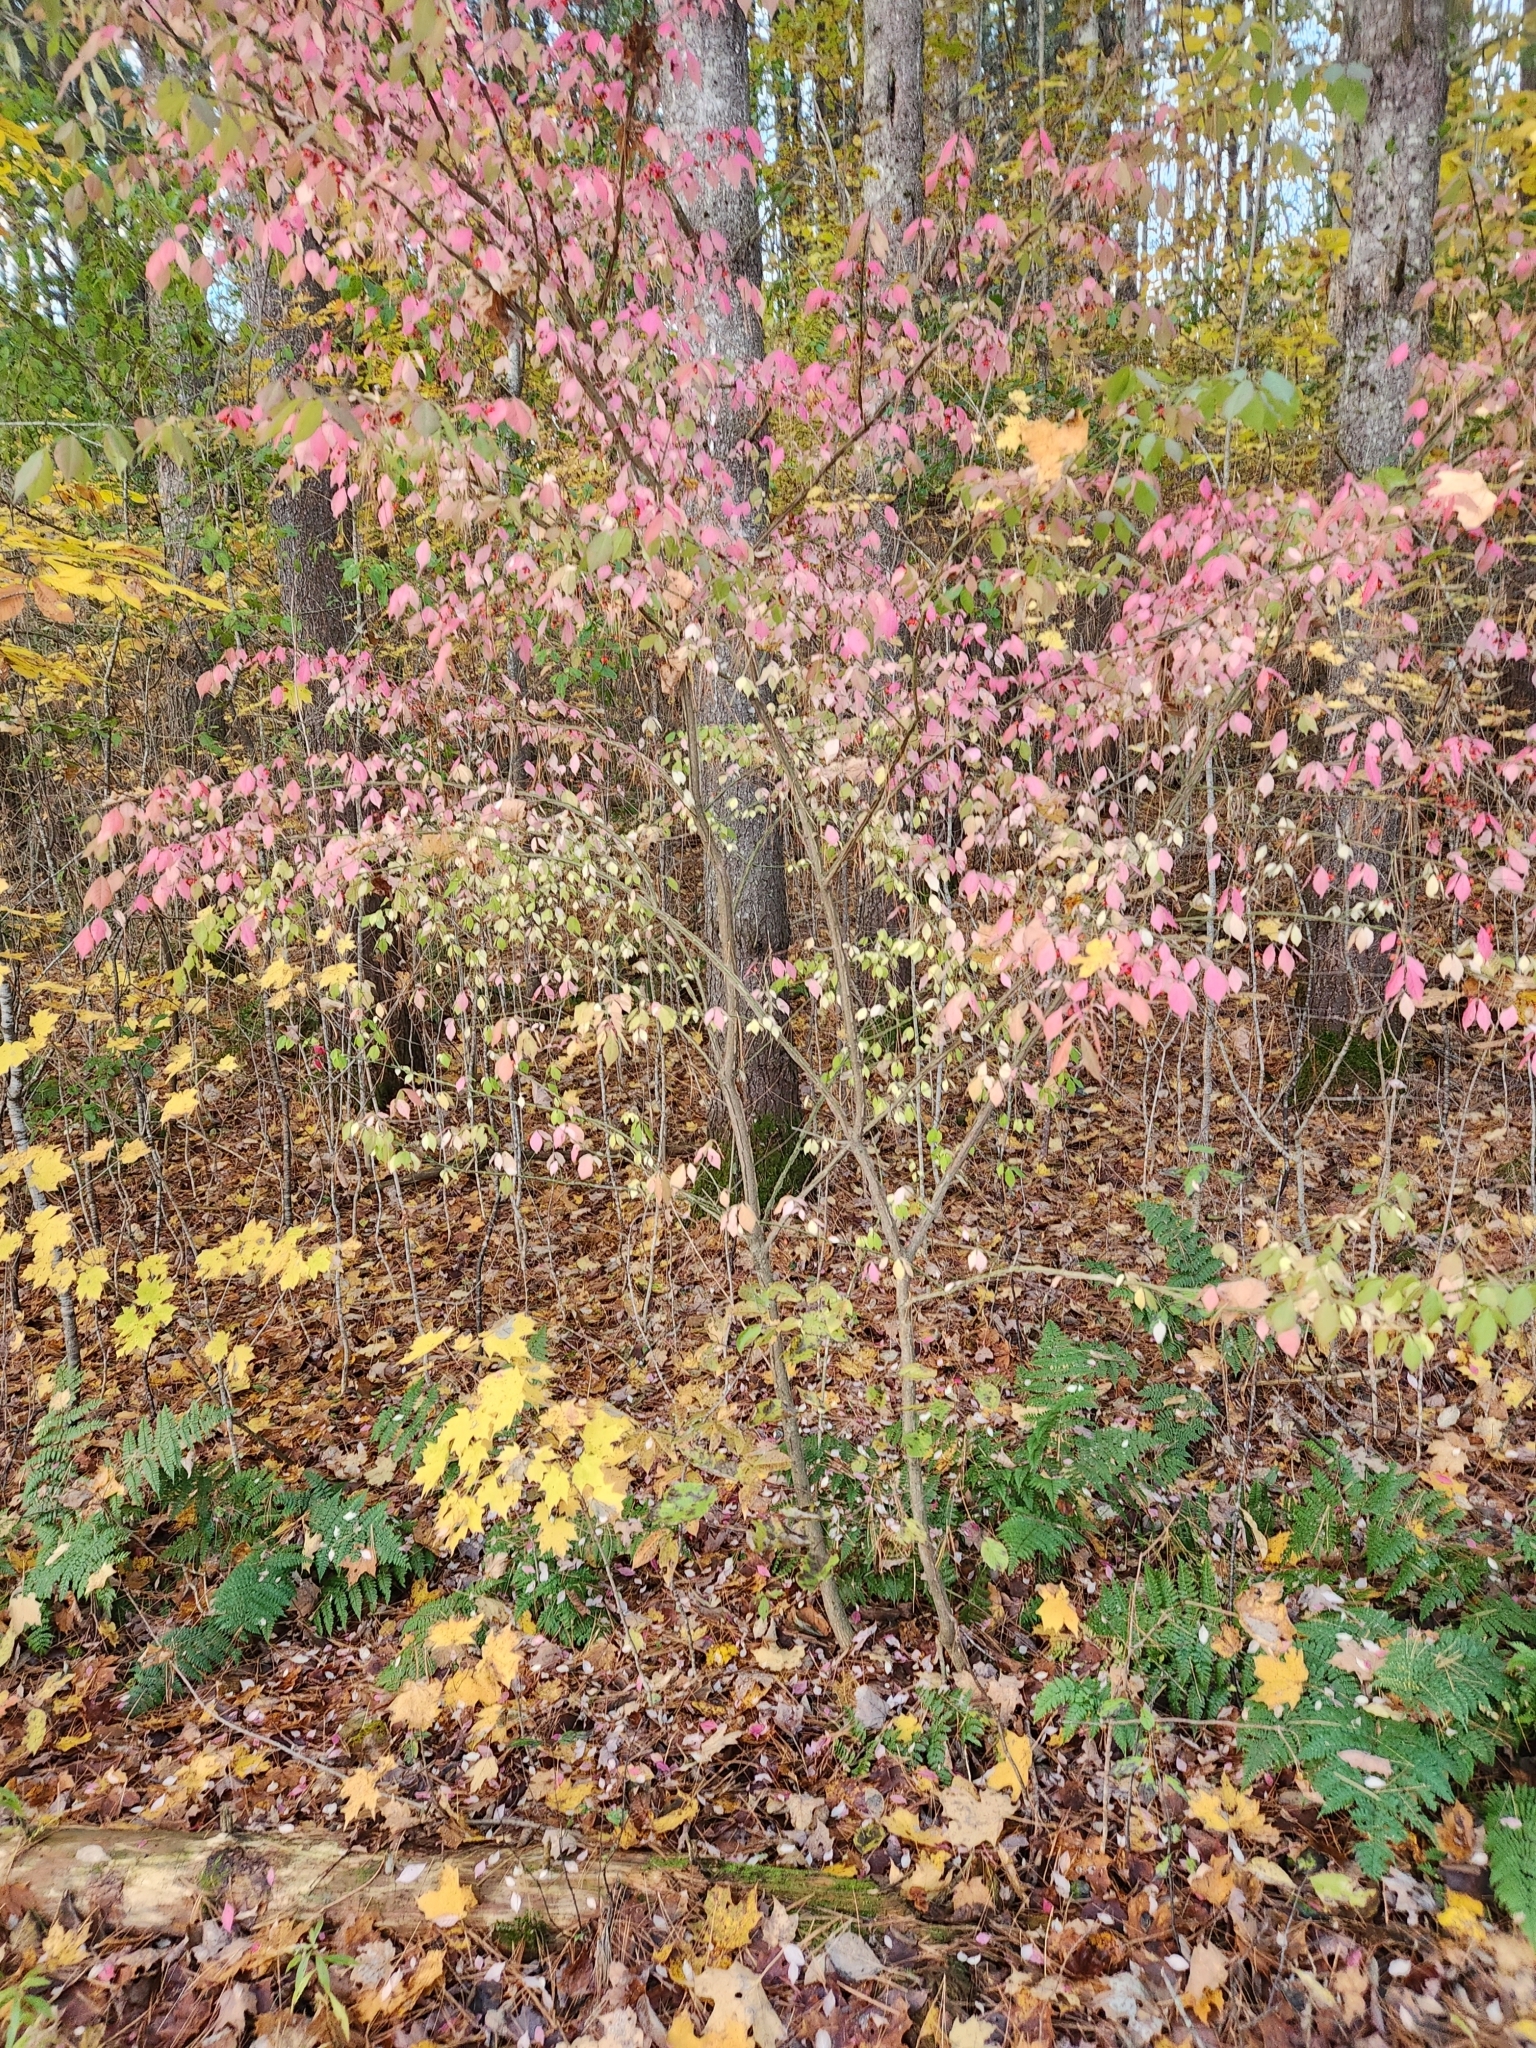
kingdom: Plantae
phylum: Tracheophyta
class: Magnoliopsida
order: Celastrales
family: Celastraceae
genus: Euonymus
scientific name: Euonymus alatus
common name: Winged euonymus
